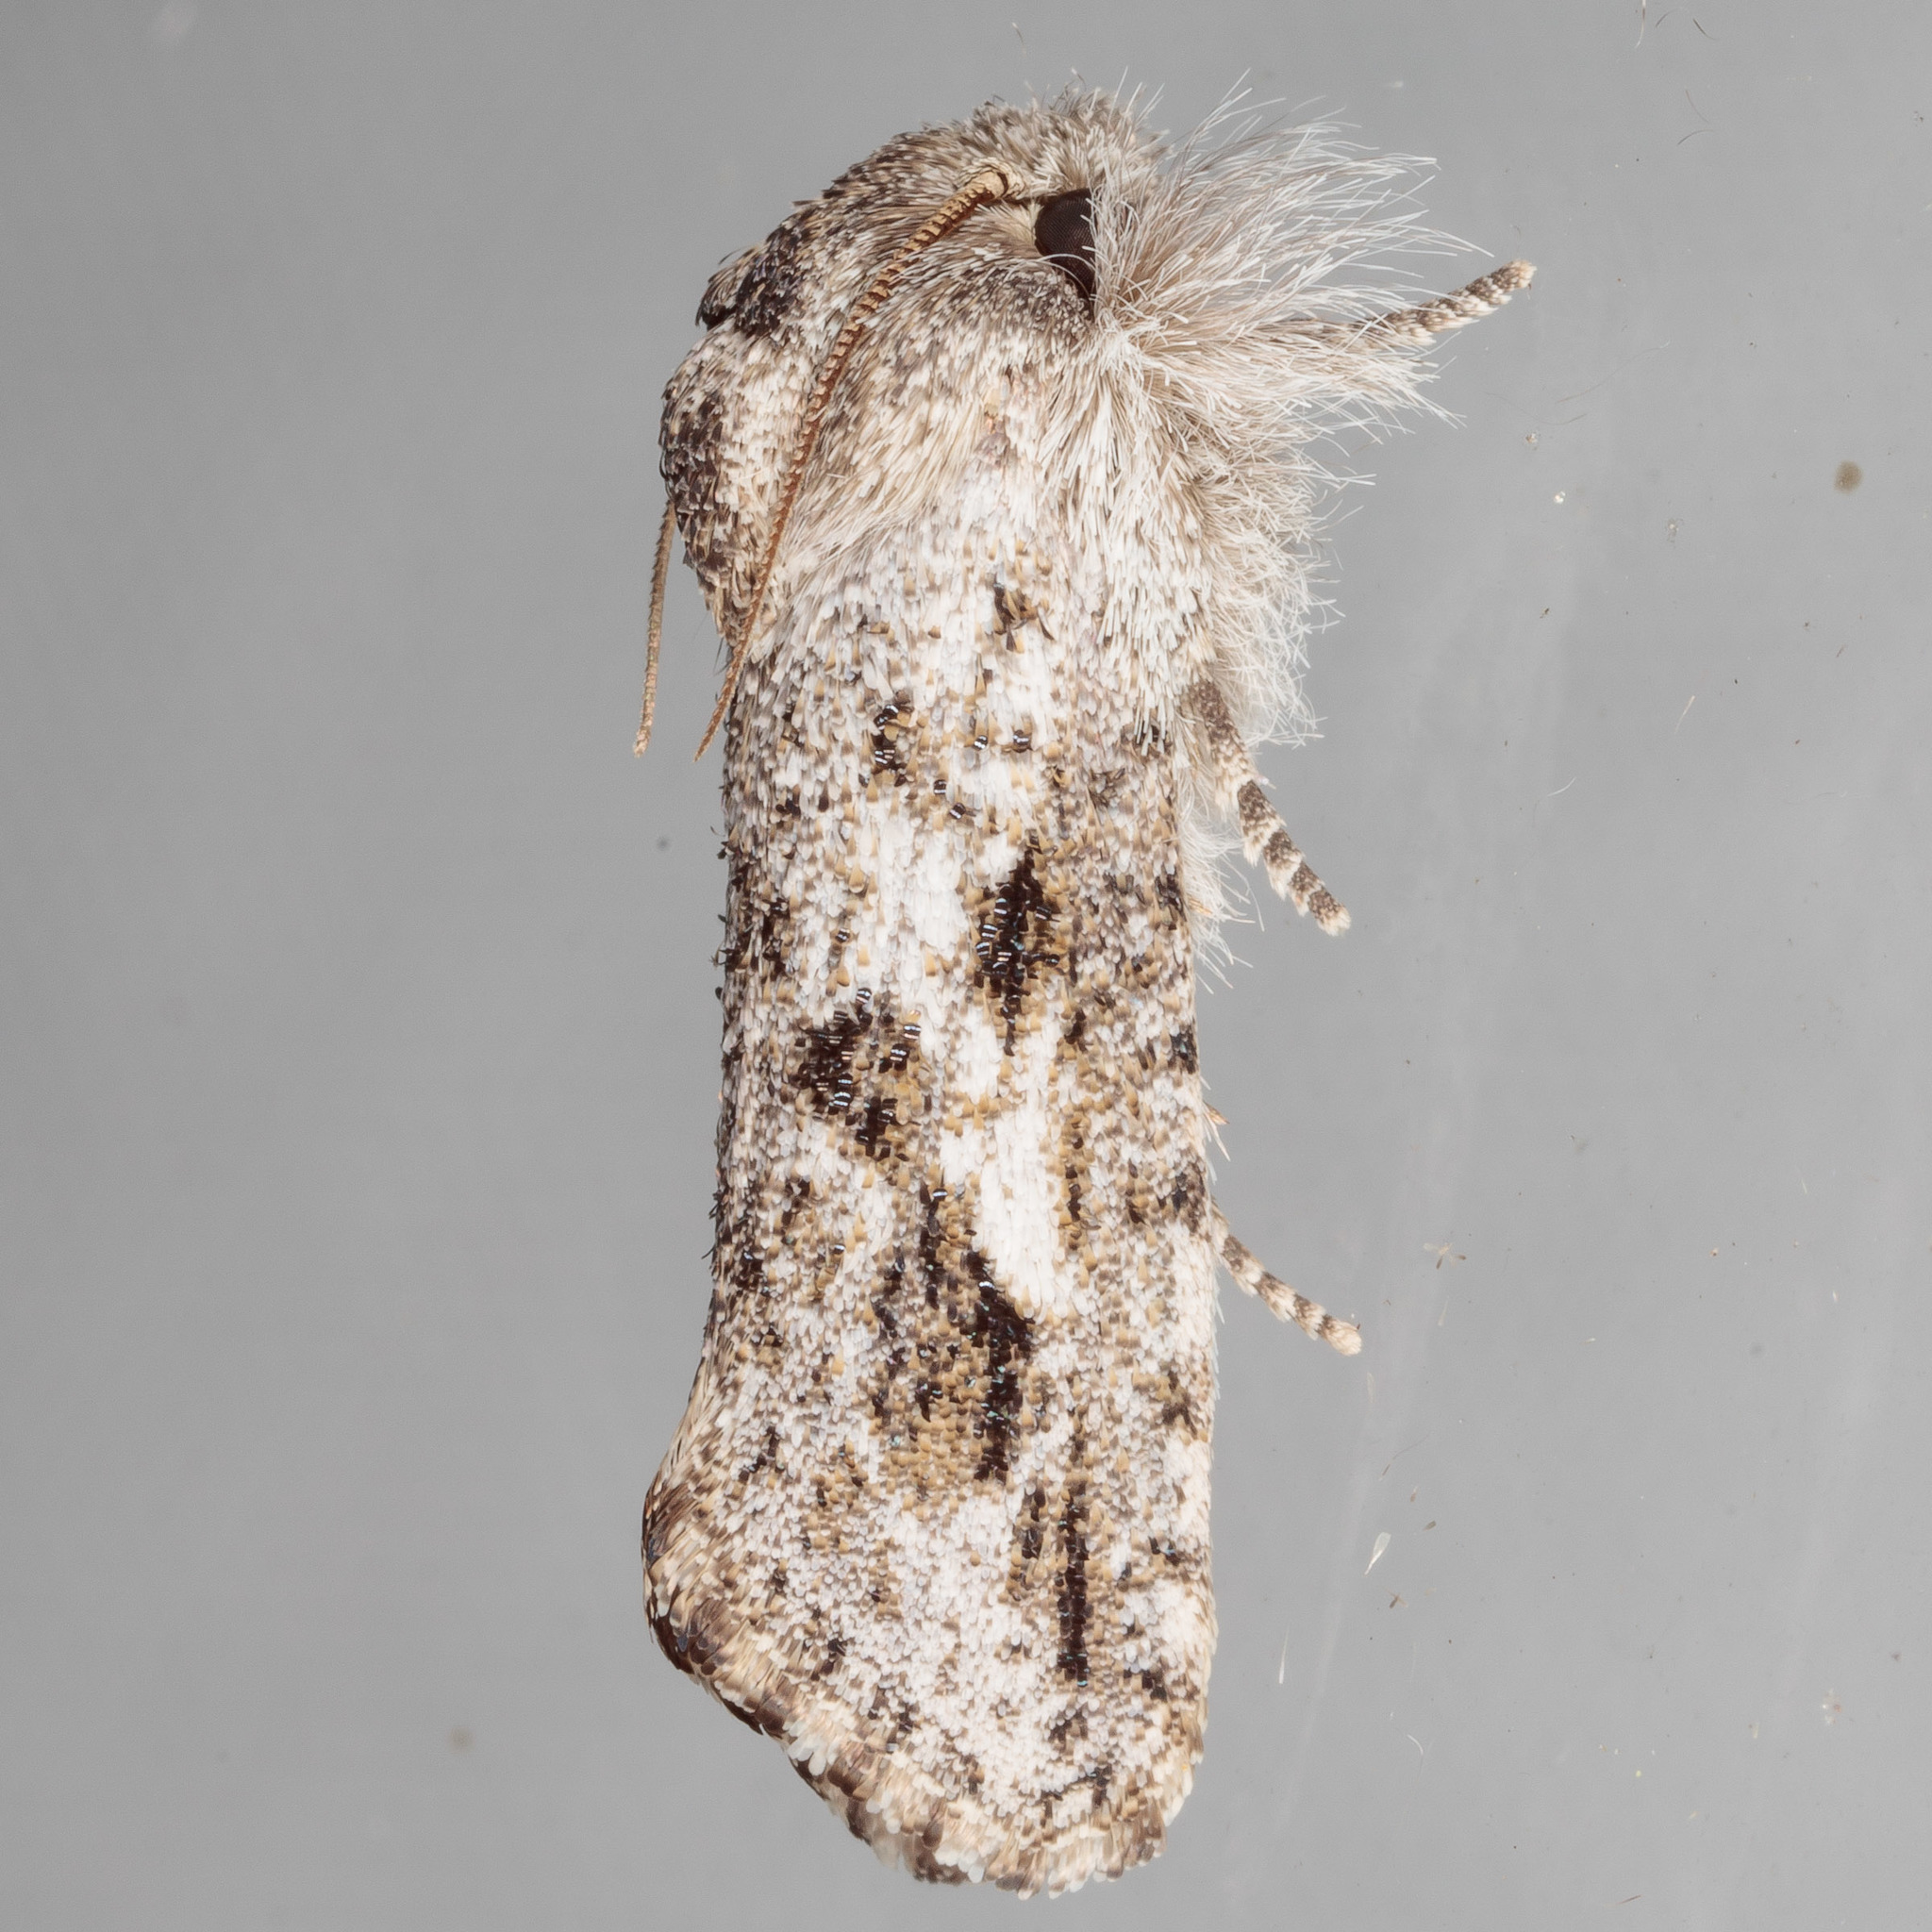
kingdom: Animalia
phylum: Arthropoda
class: Insecta
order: Lepidoptera
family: Tineidae
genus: Acrolophus
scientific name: Acrolophus griseus
